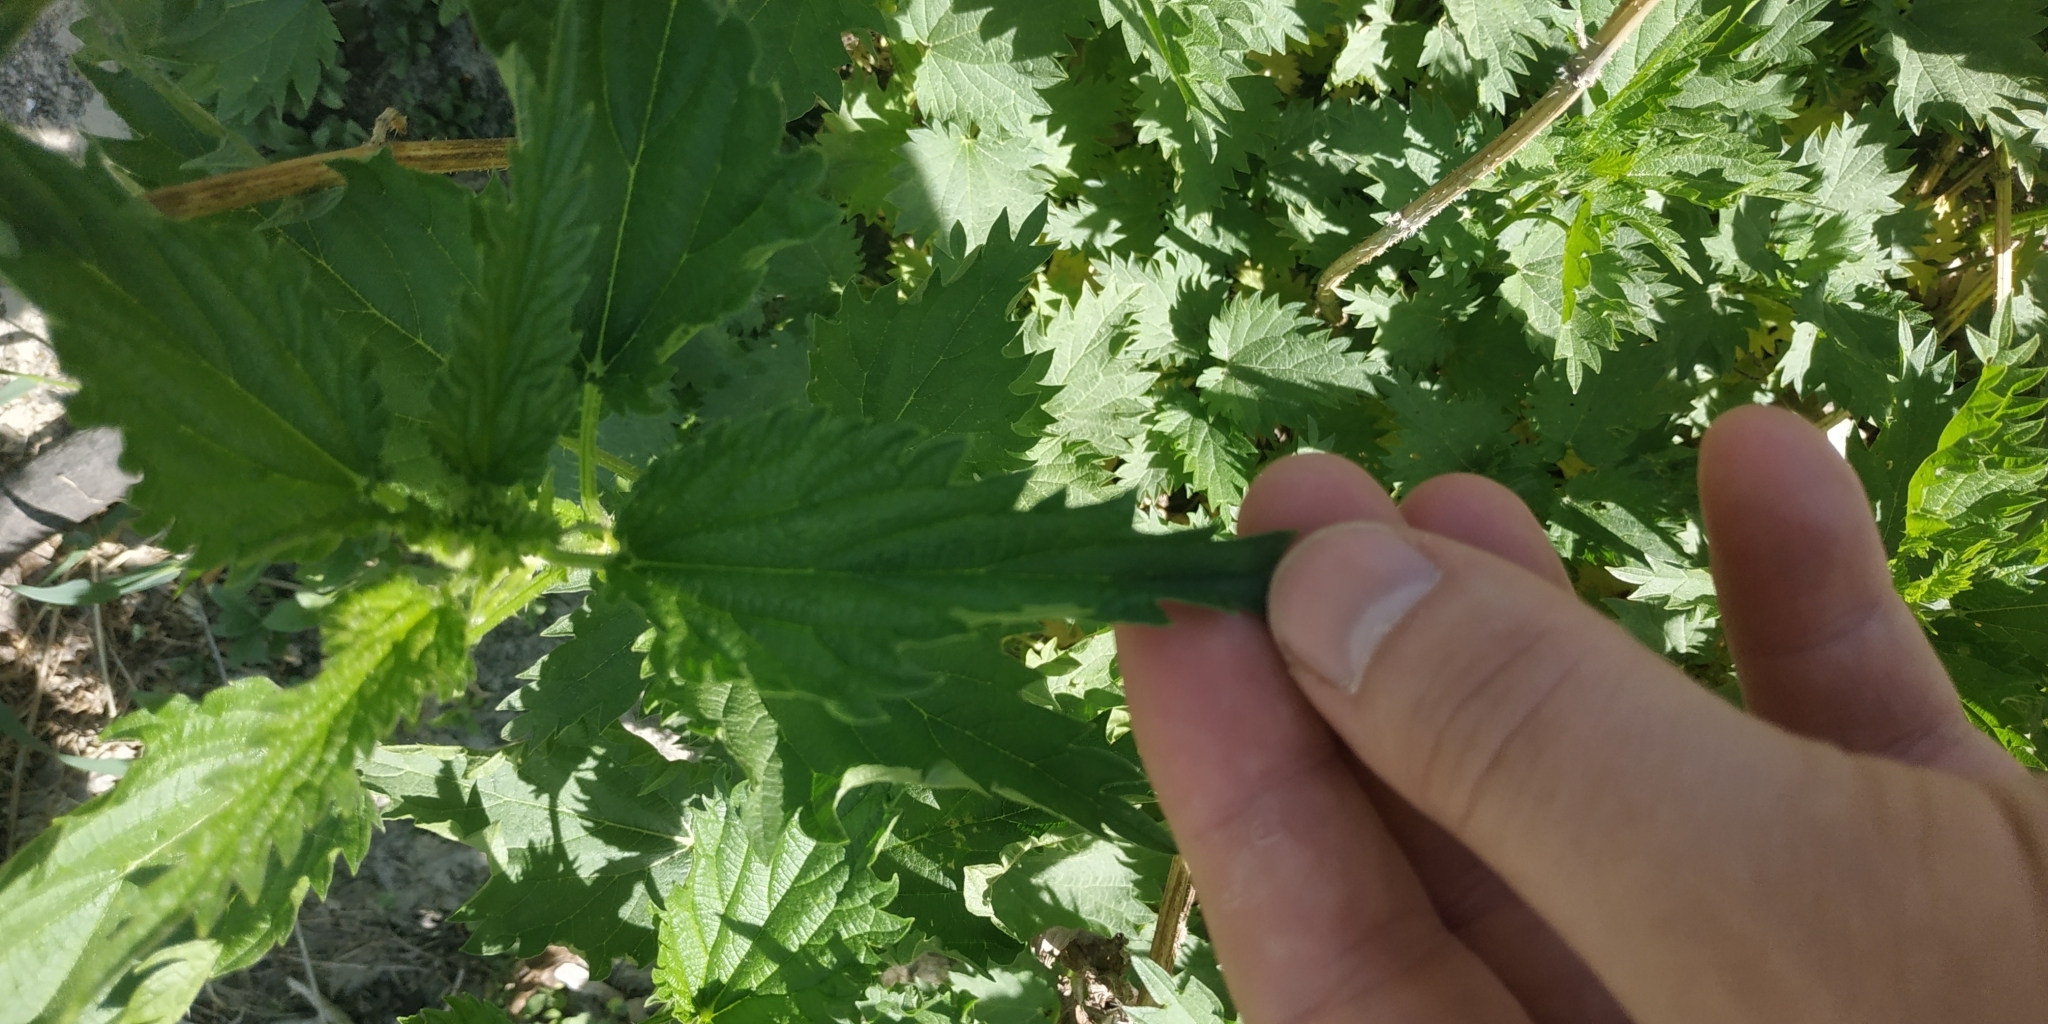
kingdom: Plantae
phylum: Tracheophyta
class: Magnoliopsida
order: Rosales
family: Urticaceae
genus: Urtica
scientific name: Urtica dioica
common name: Common nettle
